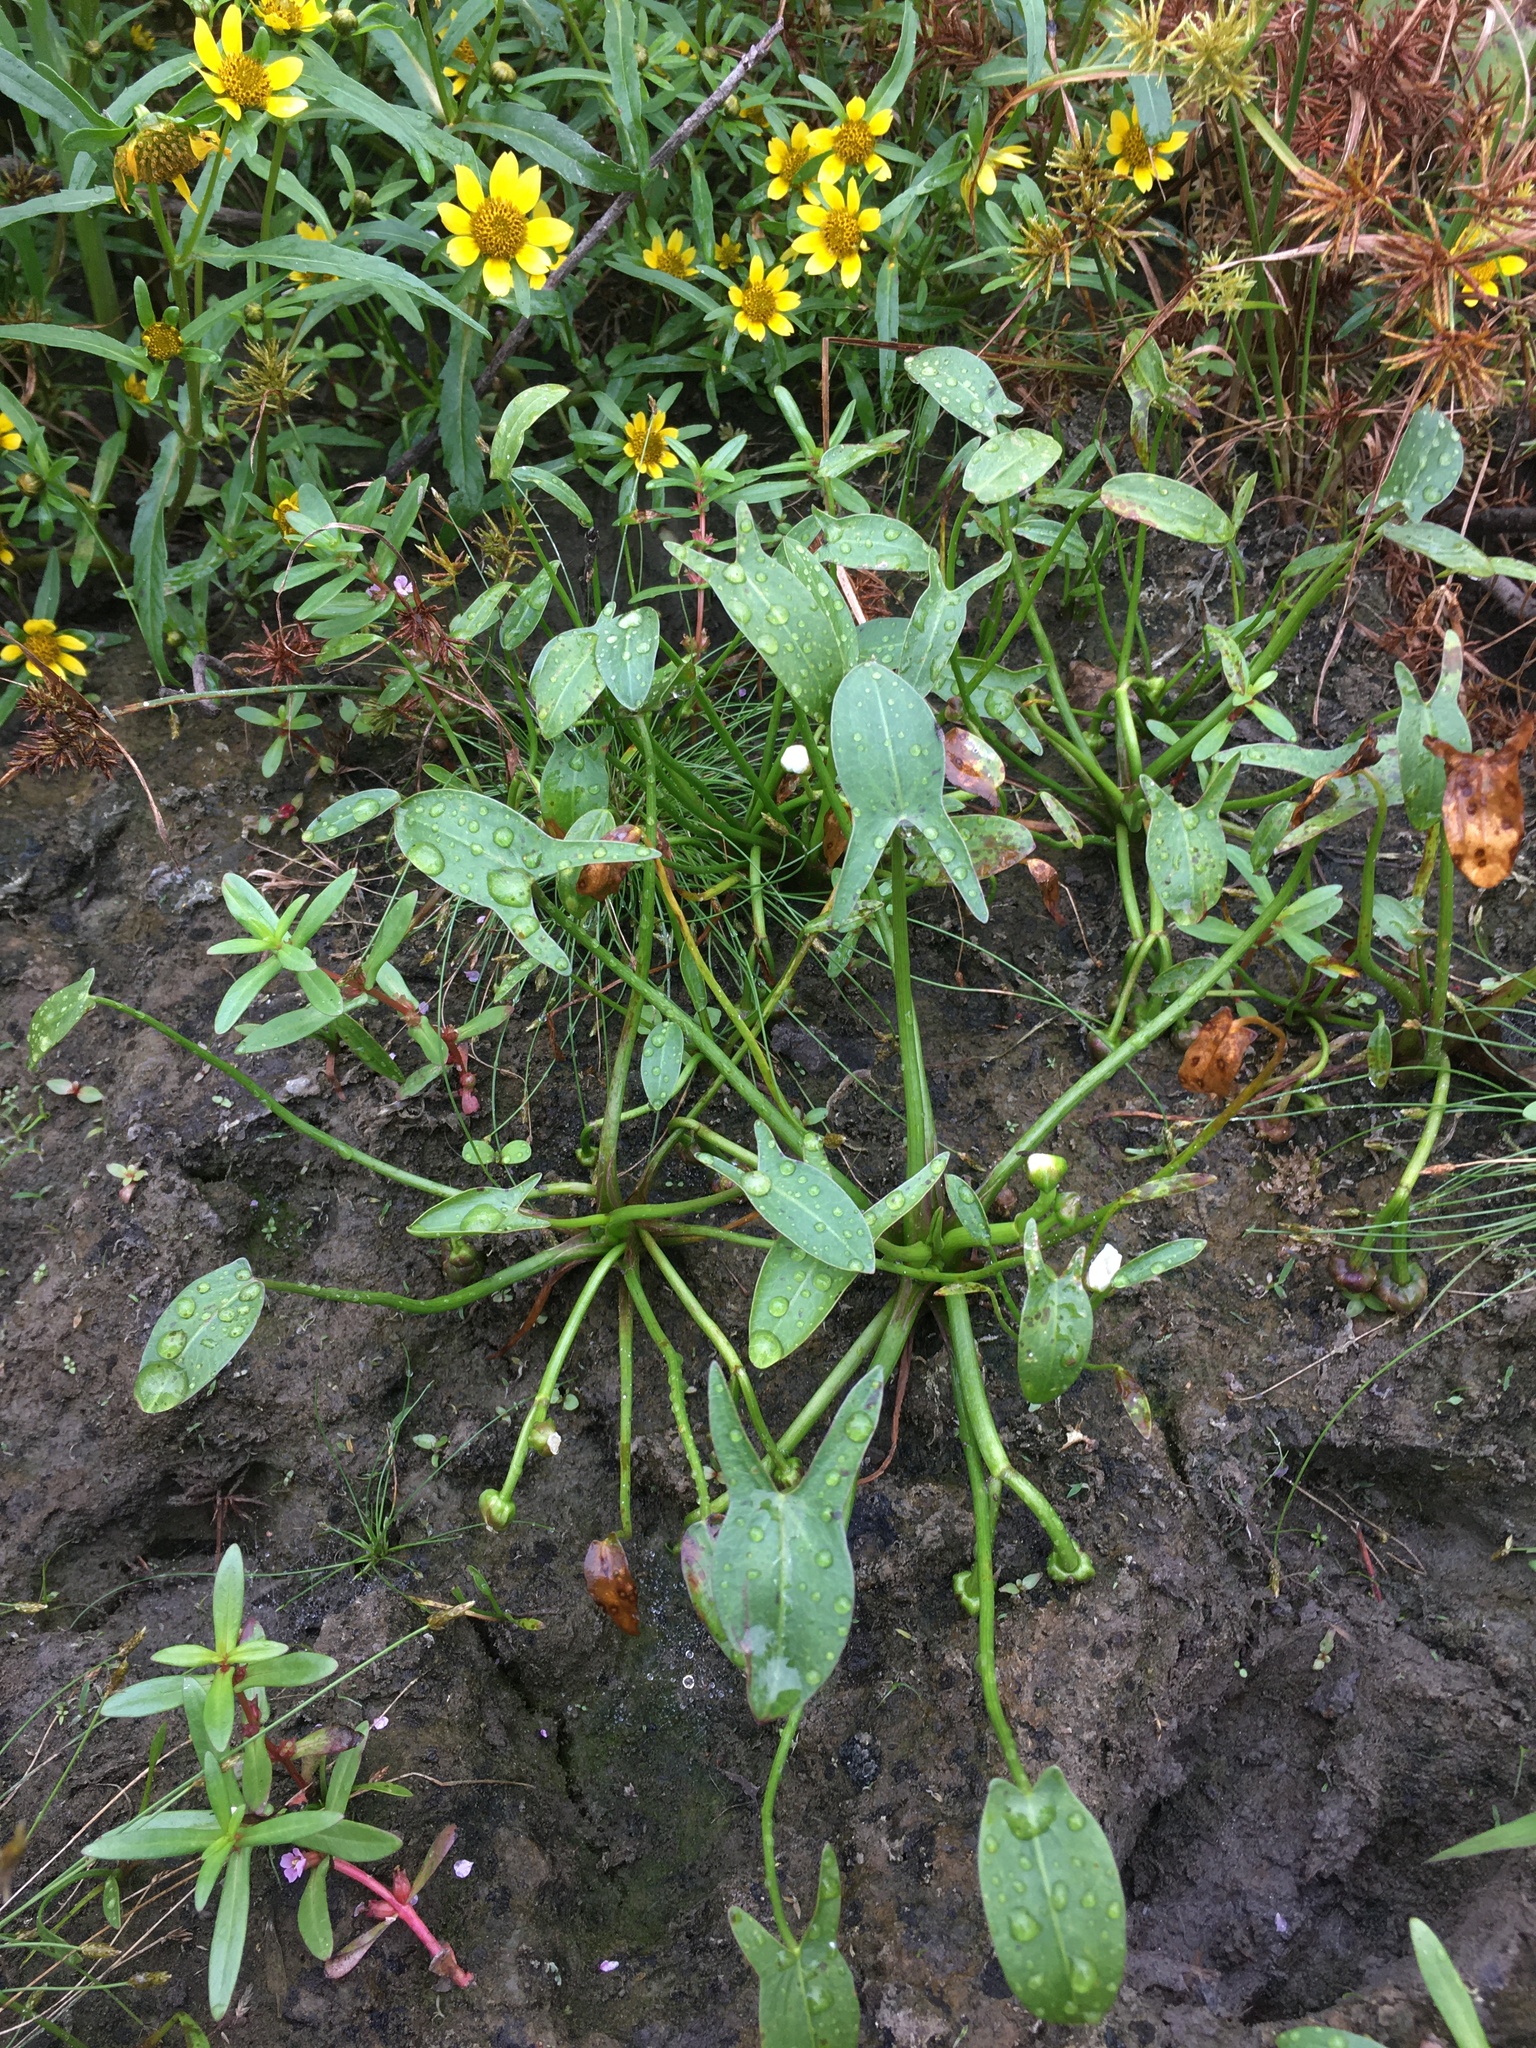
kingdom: Plantae
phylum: Tracheophyta
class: Liliopsida
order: Alismatales
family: Alismataceae
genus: Sagittaria
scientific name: Sagittaria calycina
